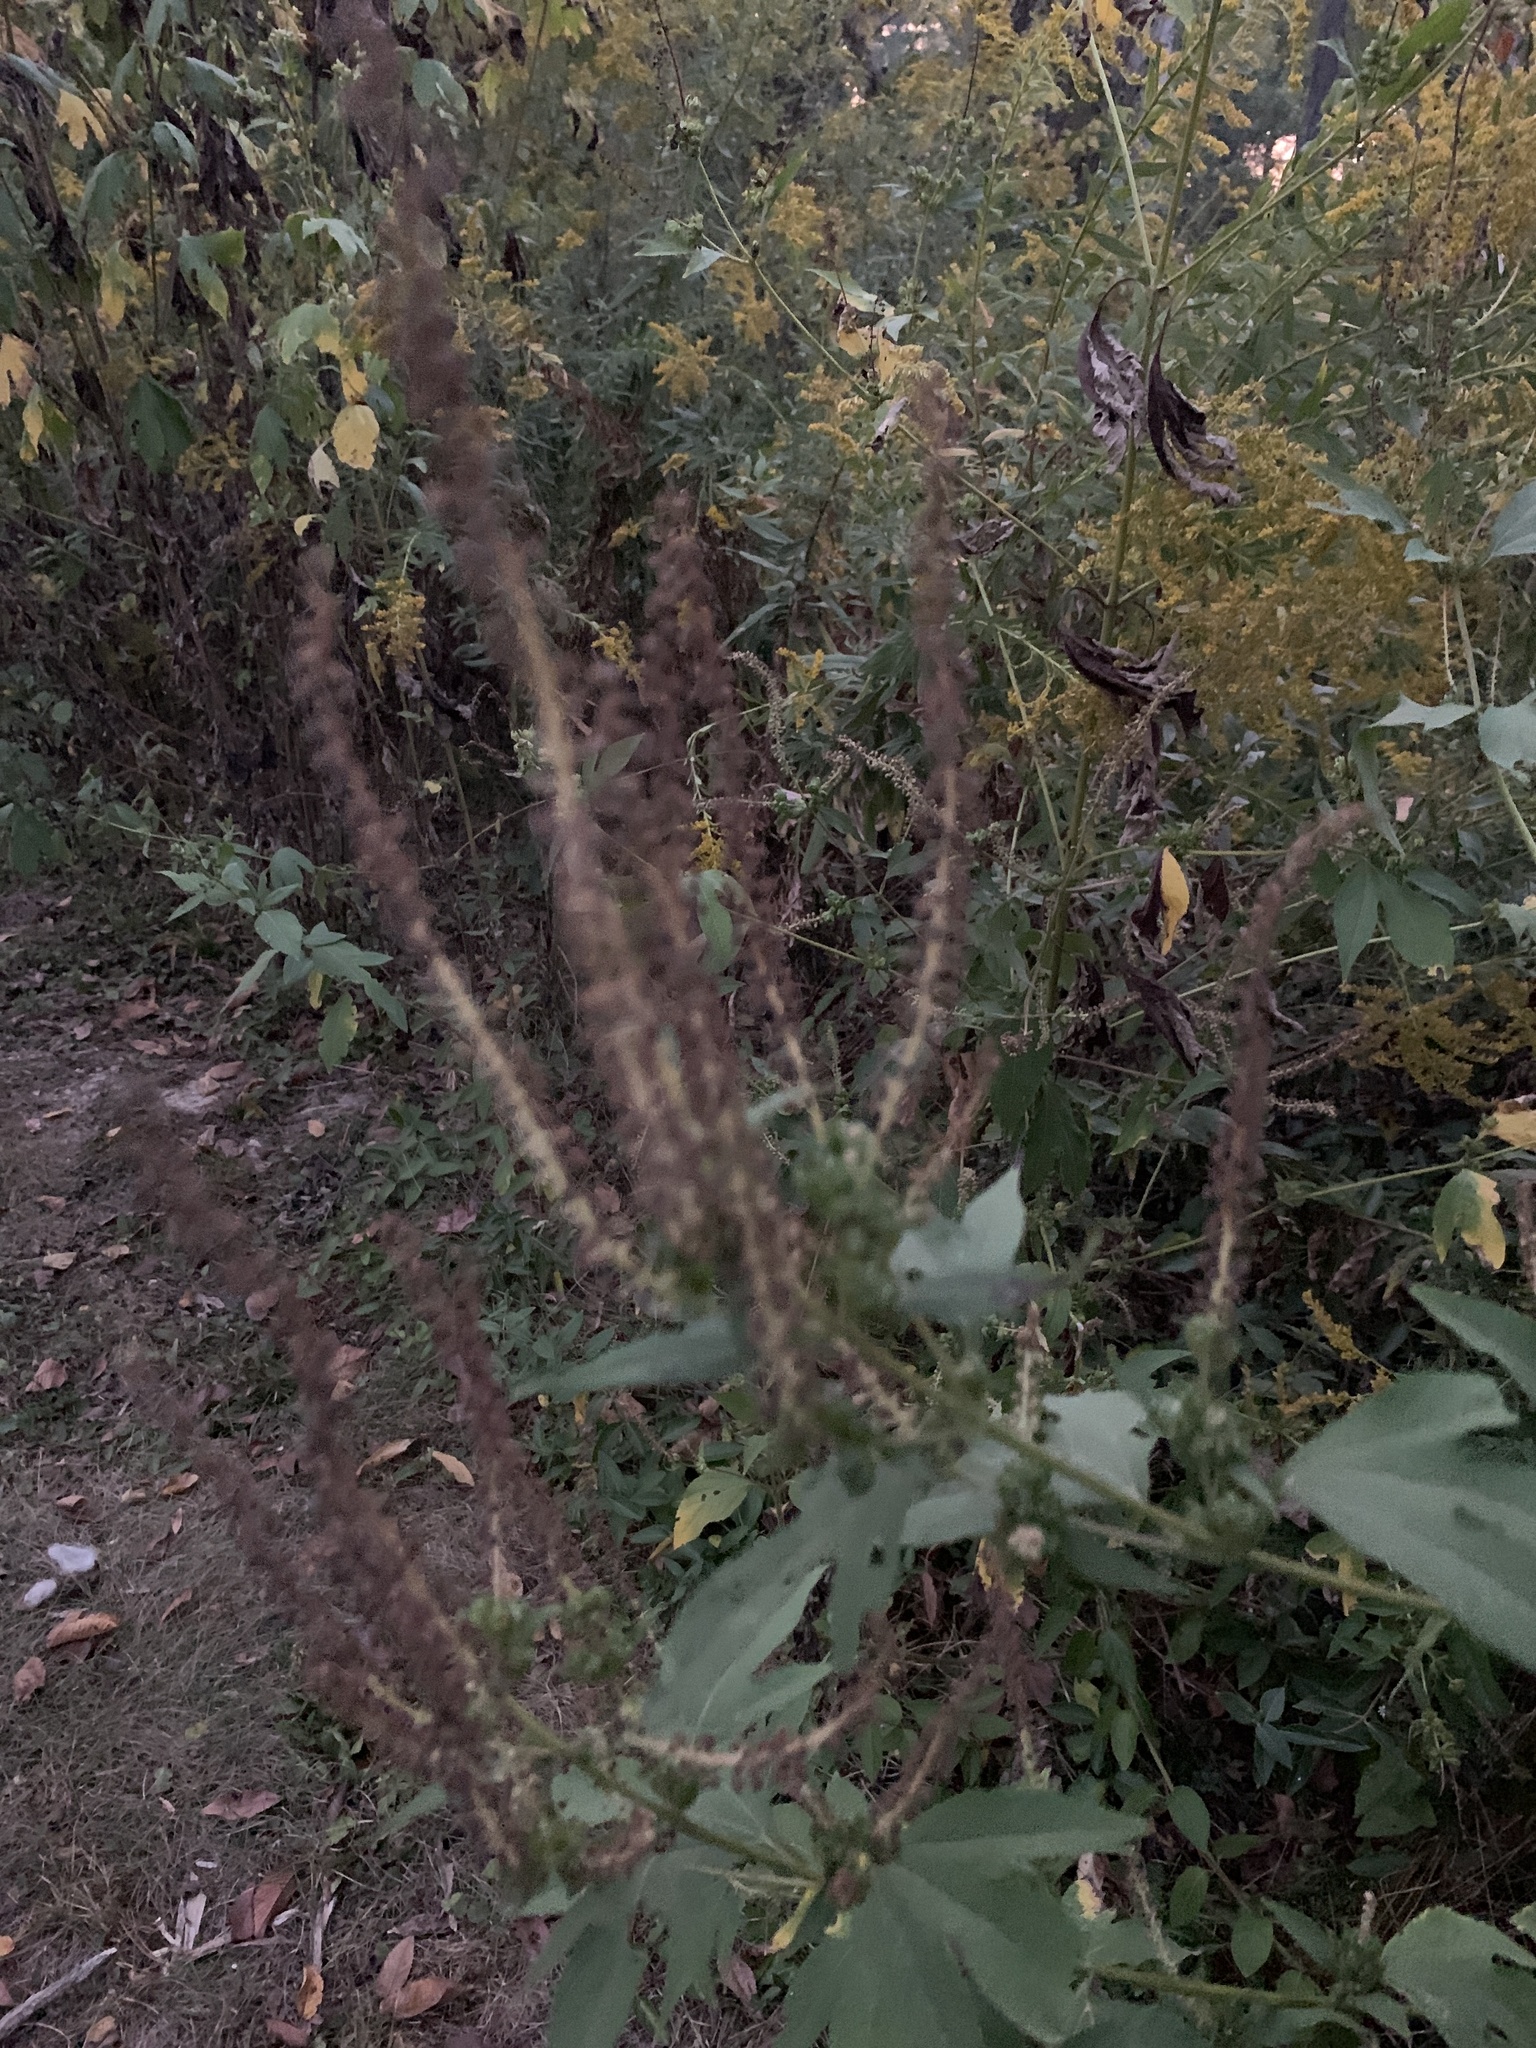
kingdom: Plantae
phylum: Tracheophyta
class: Magnoliopsida
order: Asterales
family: Asteraceae
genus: Ambrosia
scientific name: Ambrosia trifida
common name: Giant ragweed
